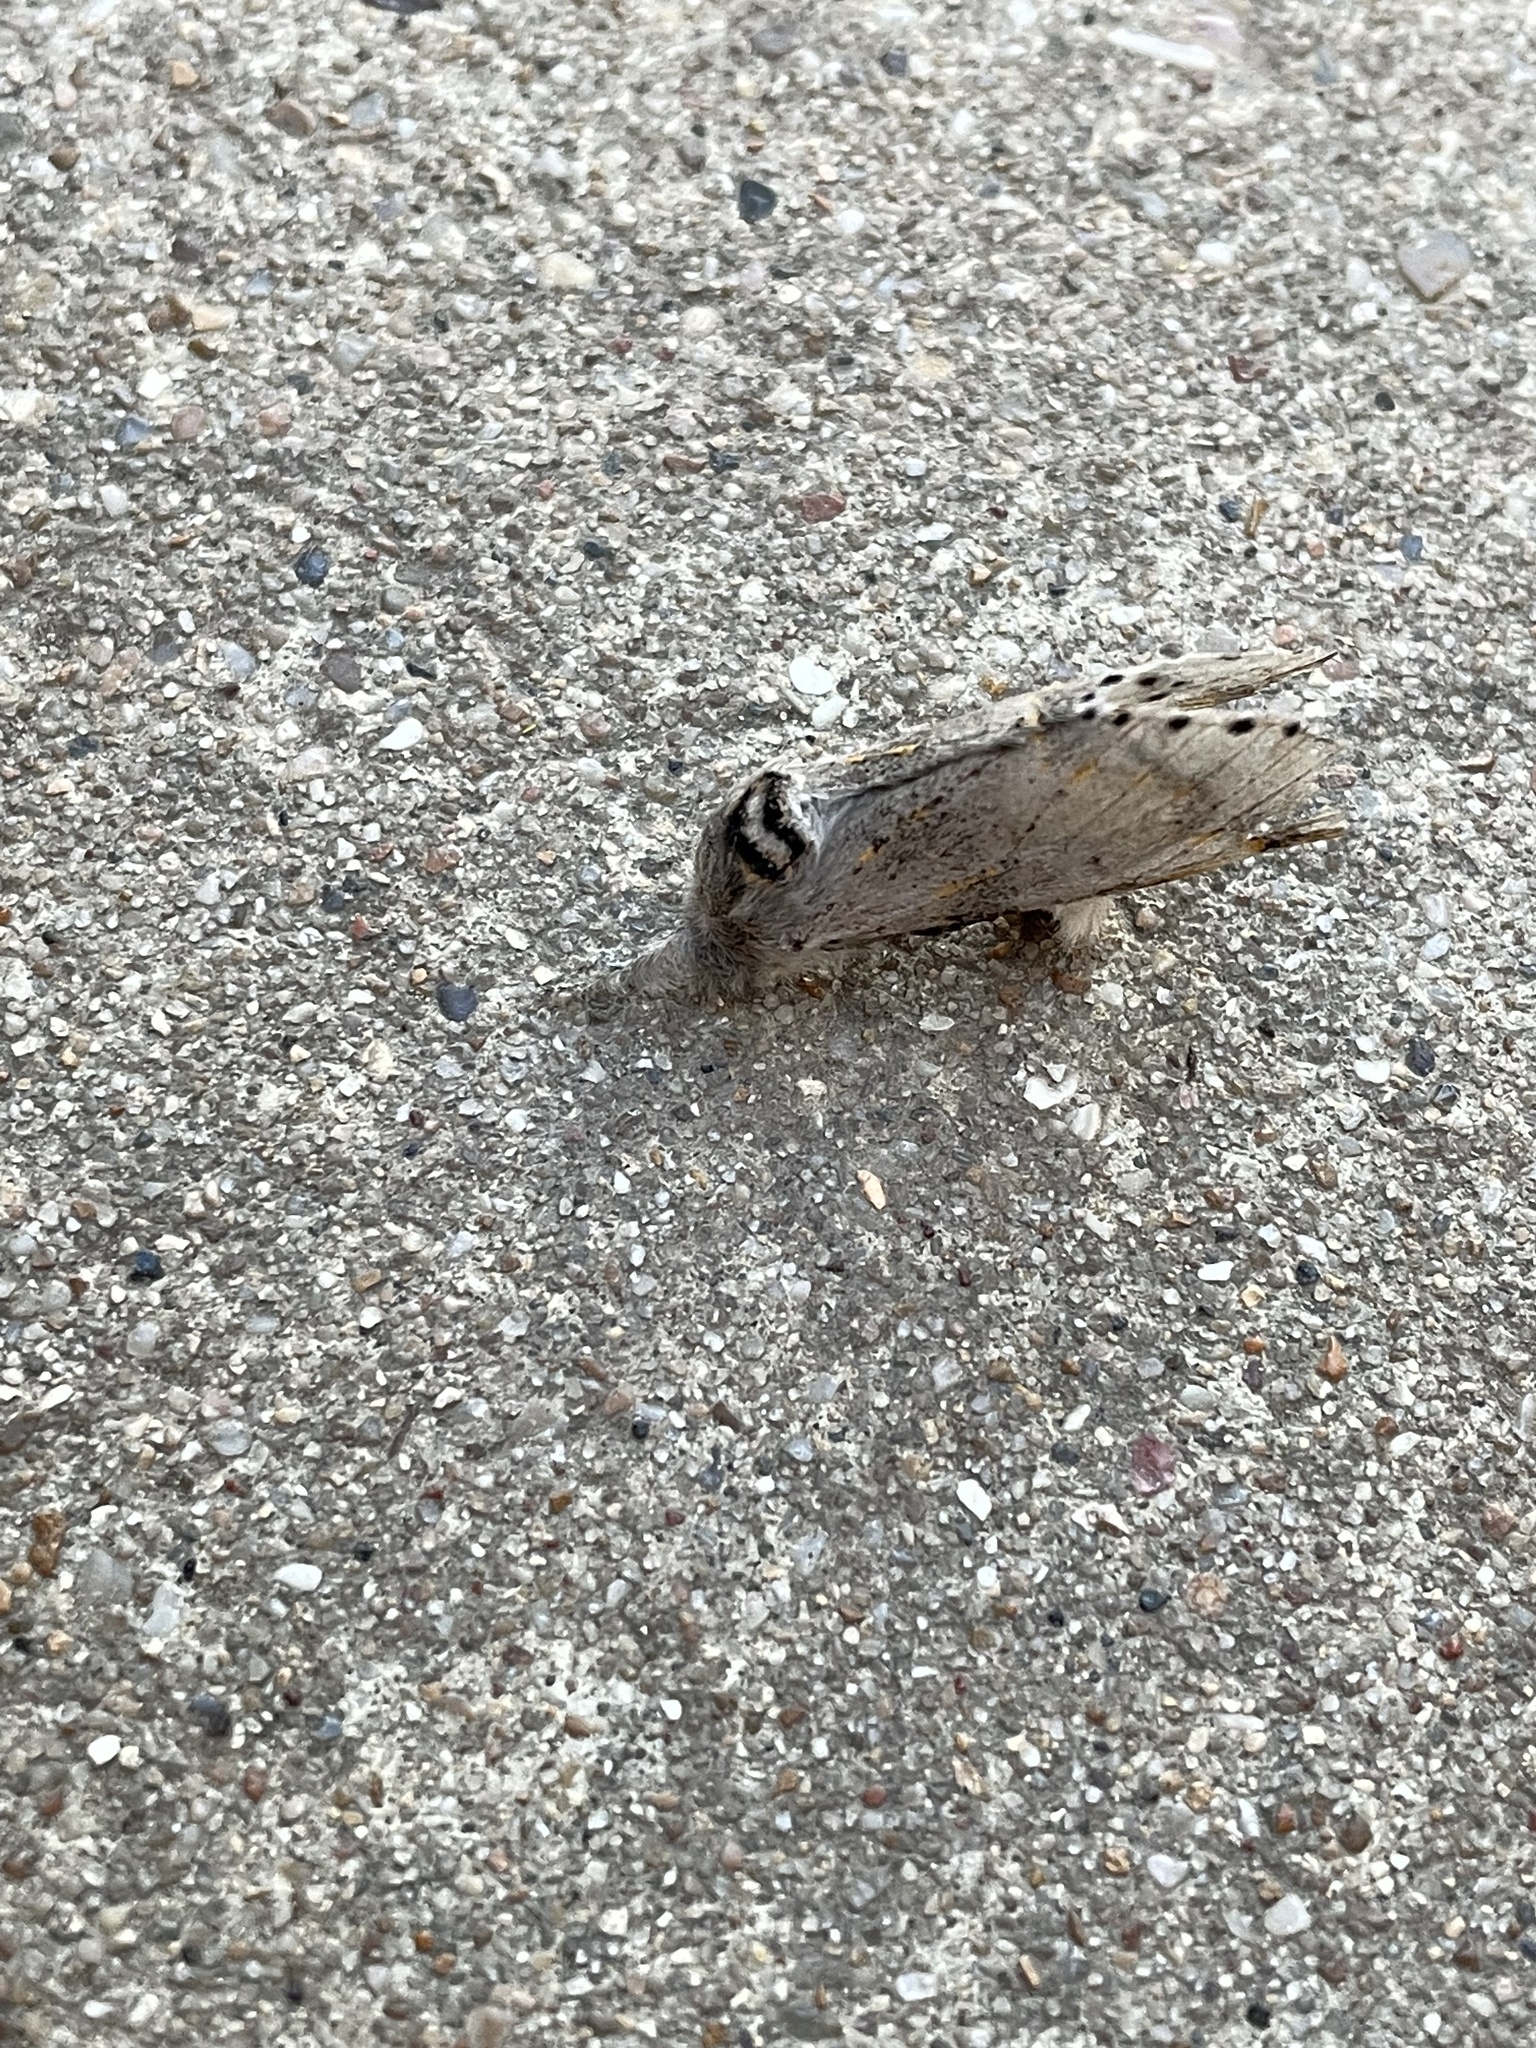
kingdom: Animalia
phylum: Arthropoda
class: Insecta
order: Lepidoptera
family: Notodontidae
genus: Furcula
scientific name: Furcula cinerea
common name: Gray furcula
